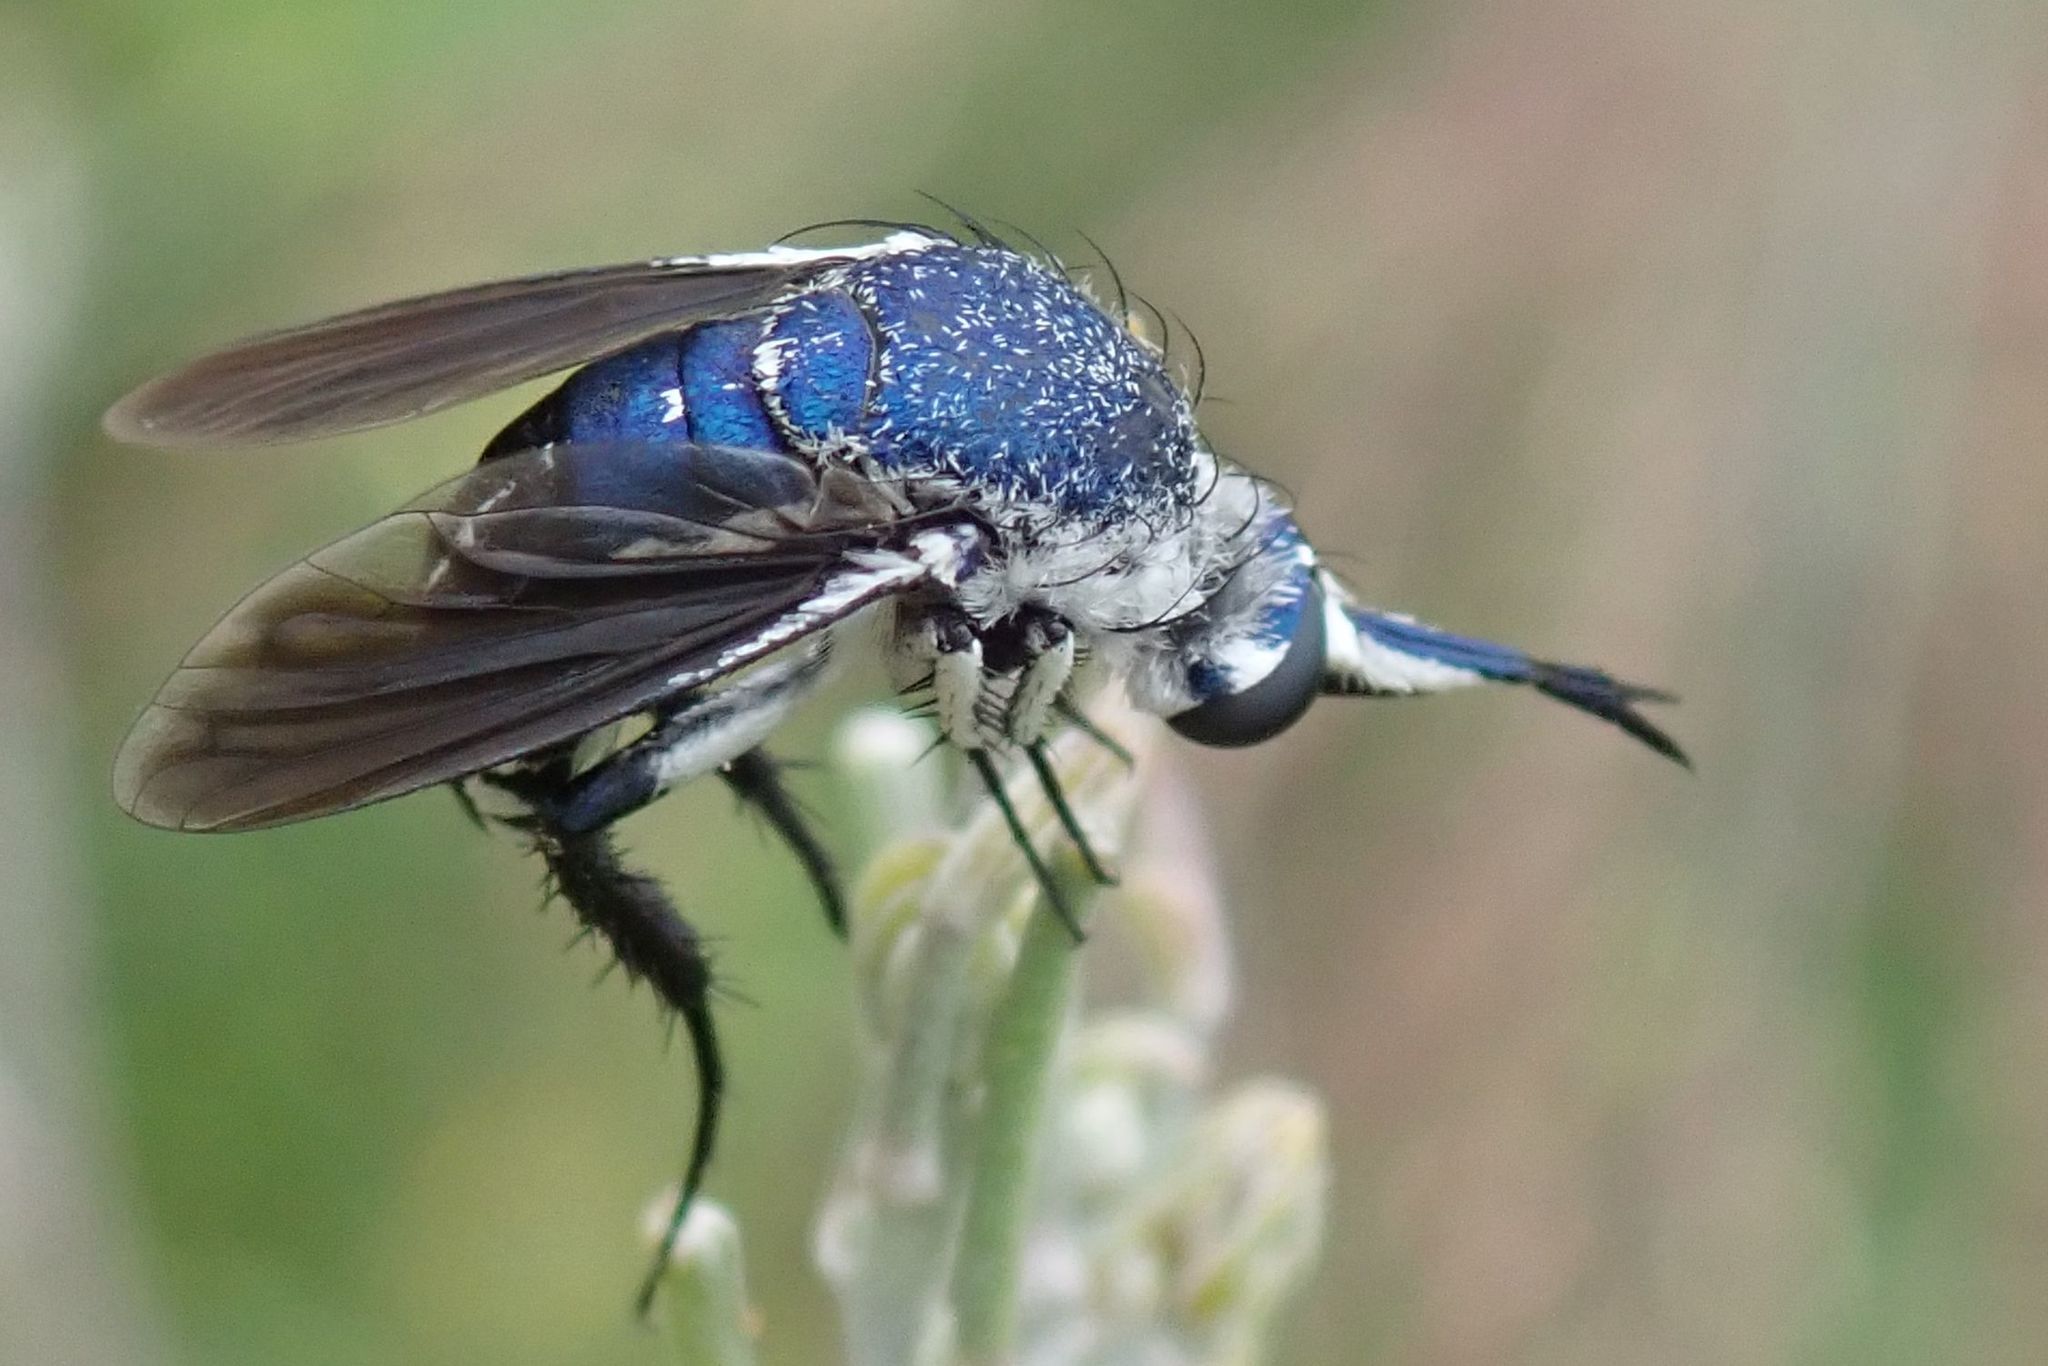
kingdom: Animalia
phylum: Arthropoda
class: Insecta
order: Diptera
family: Bombyliidae
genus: Toxophora
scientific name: Toxophora coeruleiventris
